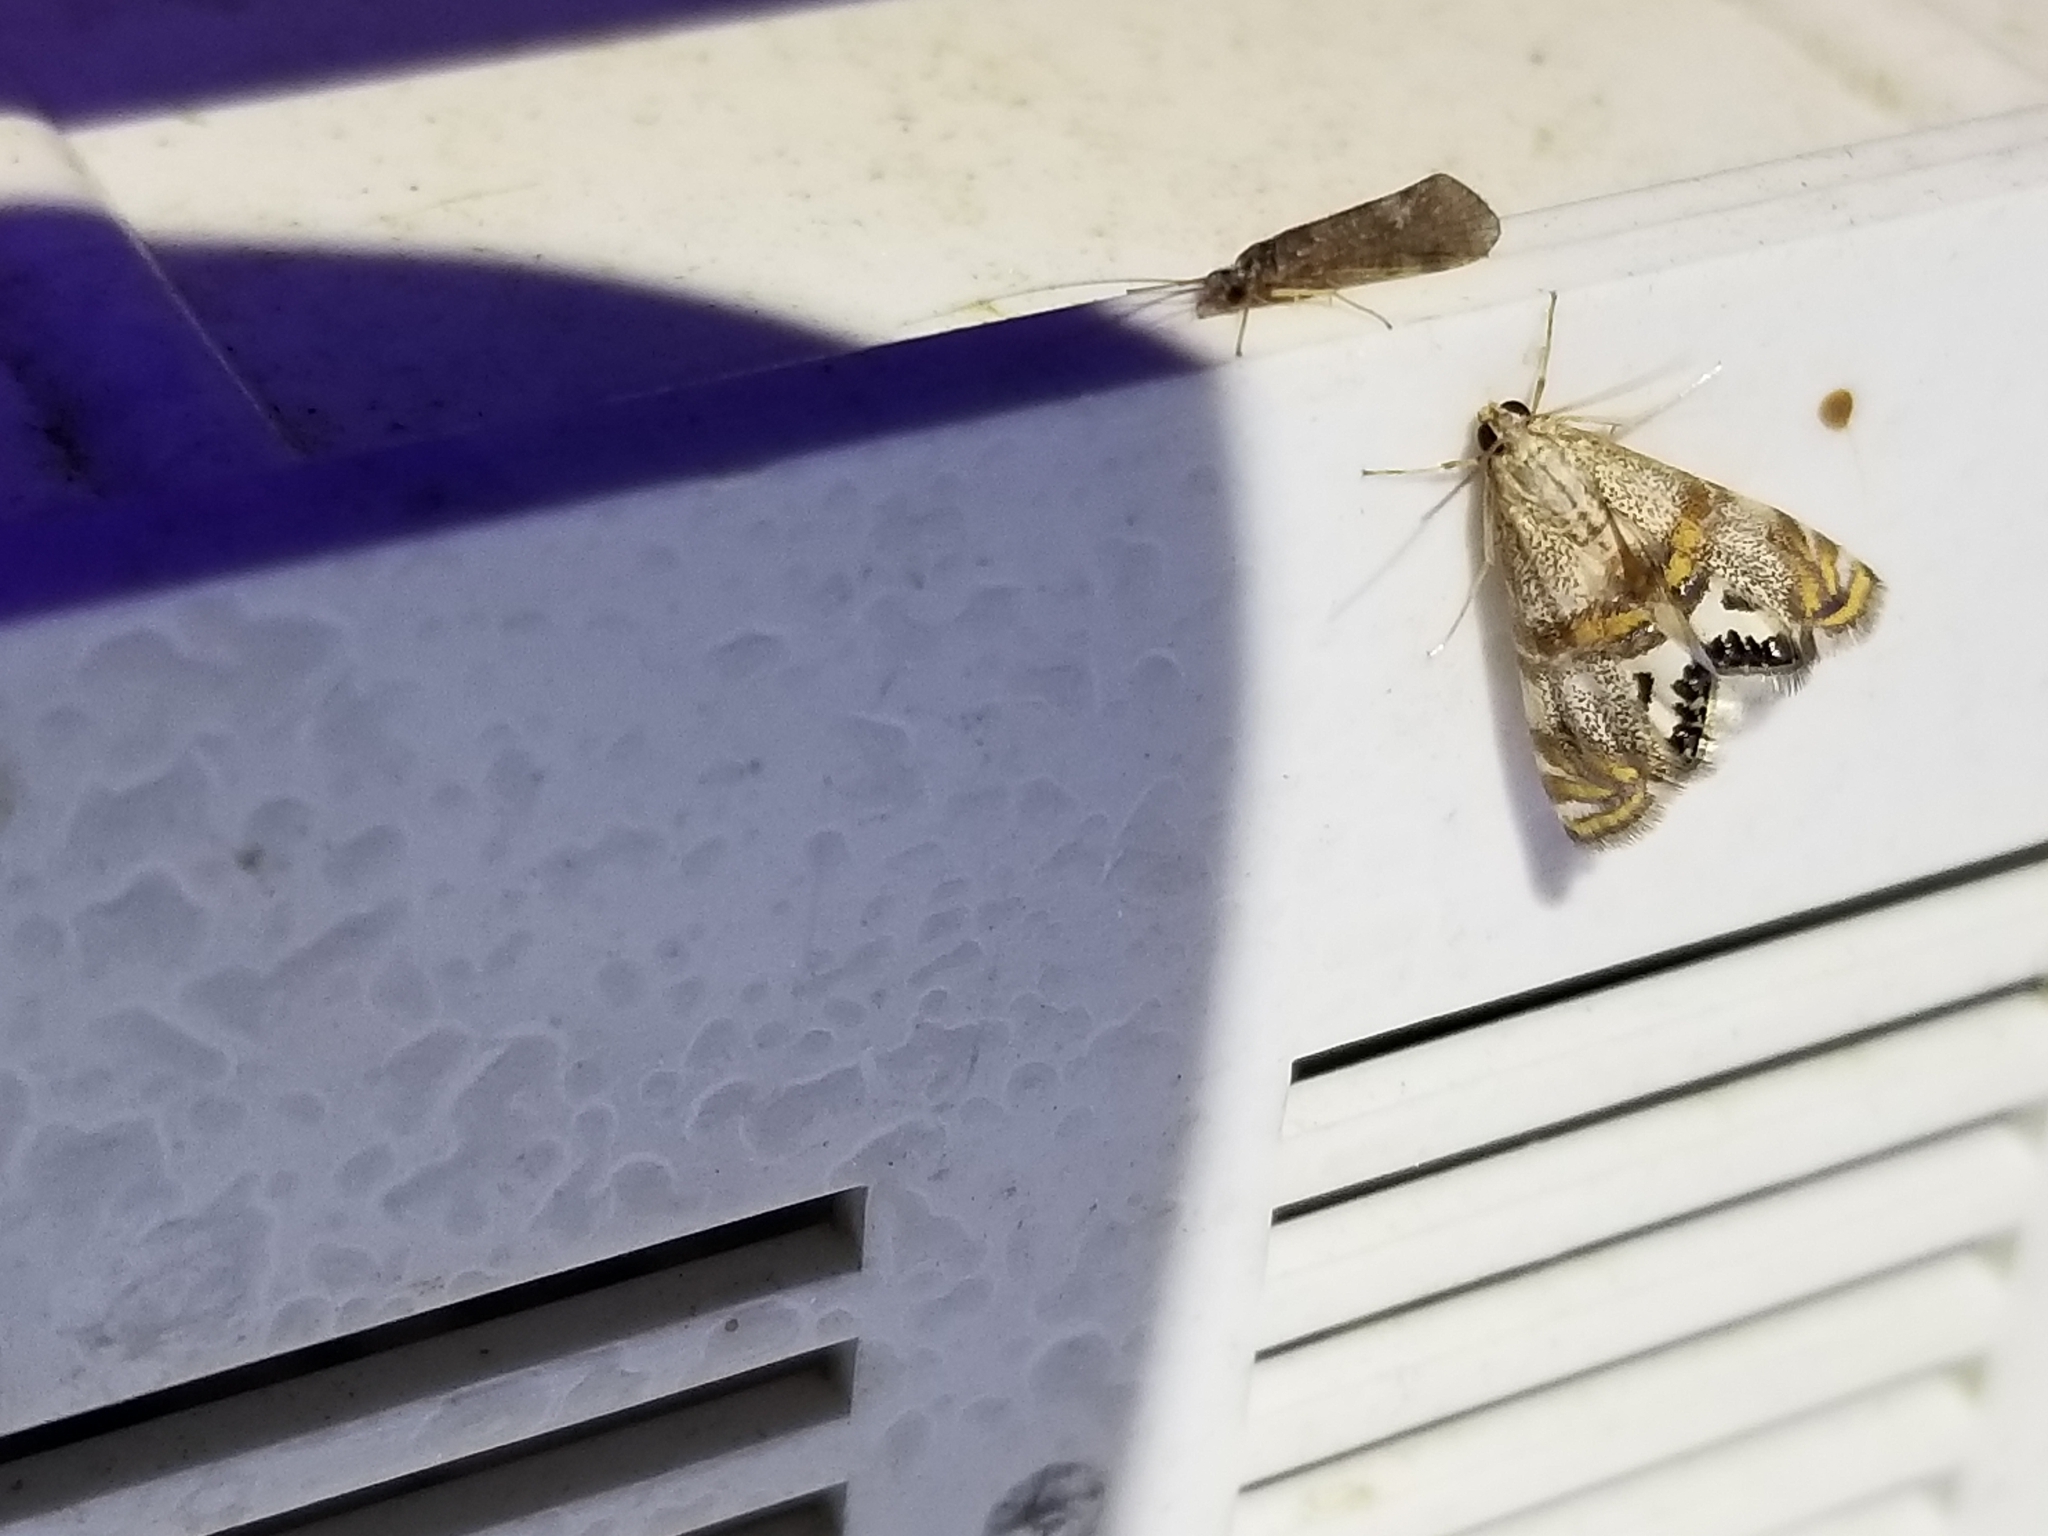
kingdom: Animalia
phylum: Arthropoda
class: Insecta
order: Lepidoptera
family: Crambidae
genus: Petrophila
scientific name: Petrophila bifascialis
